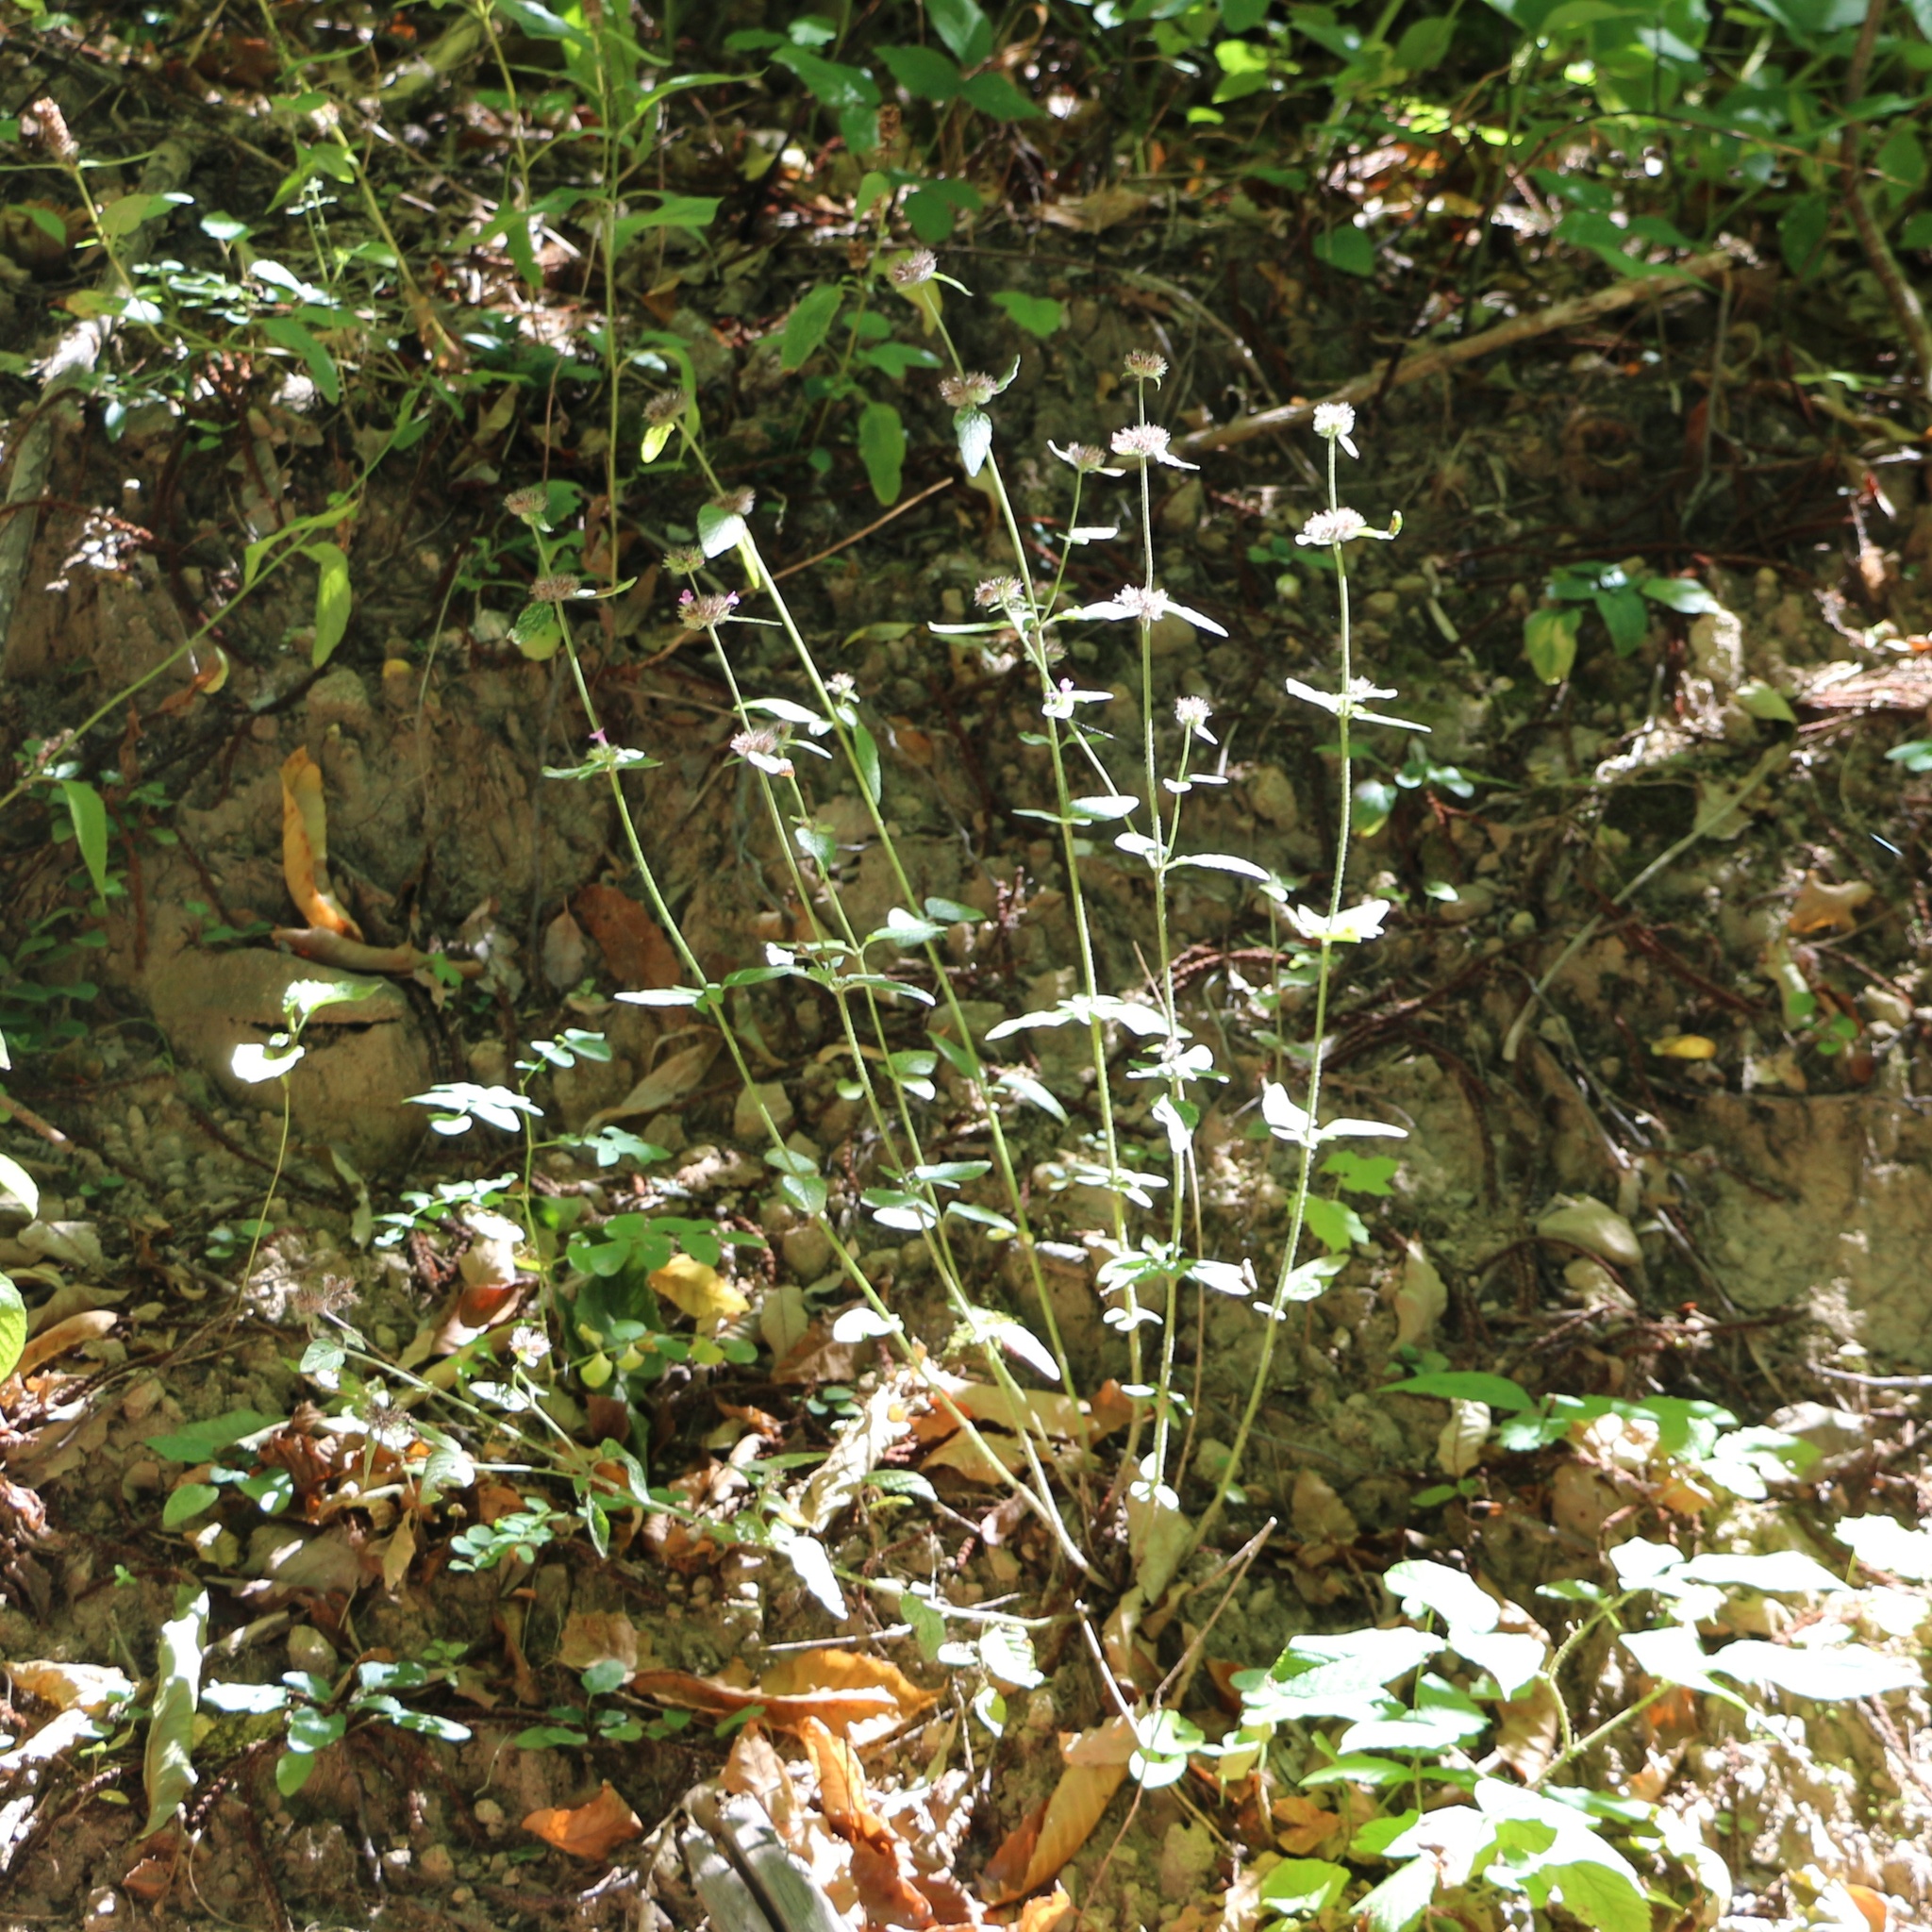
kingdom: Plantae
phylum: Tracheophyta
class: Magnoliopsida
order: Lamiales
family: Lamiaceae
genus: Clinopodium
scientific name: Clinopodium caucasicum
